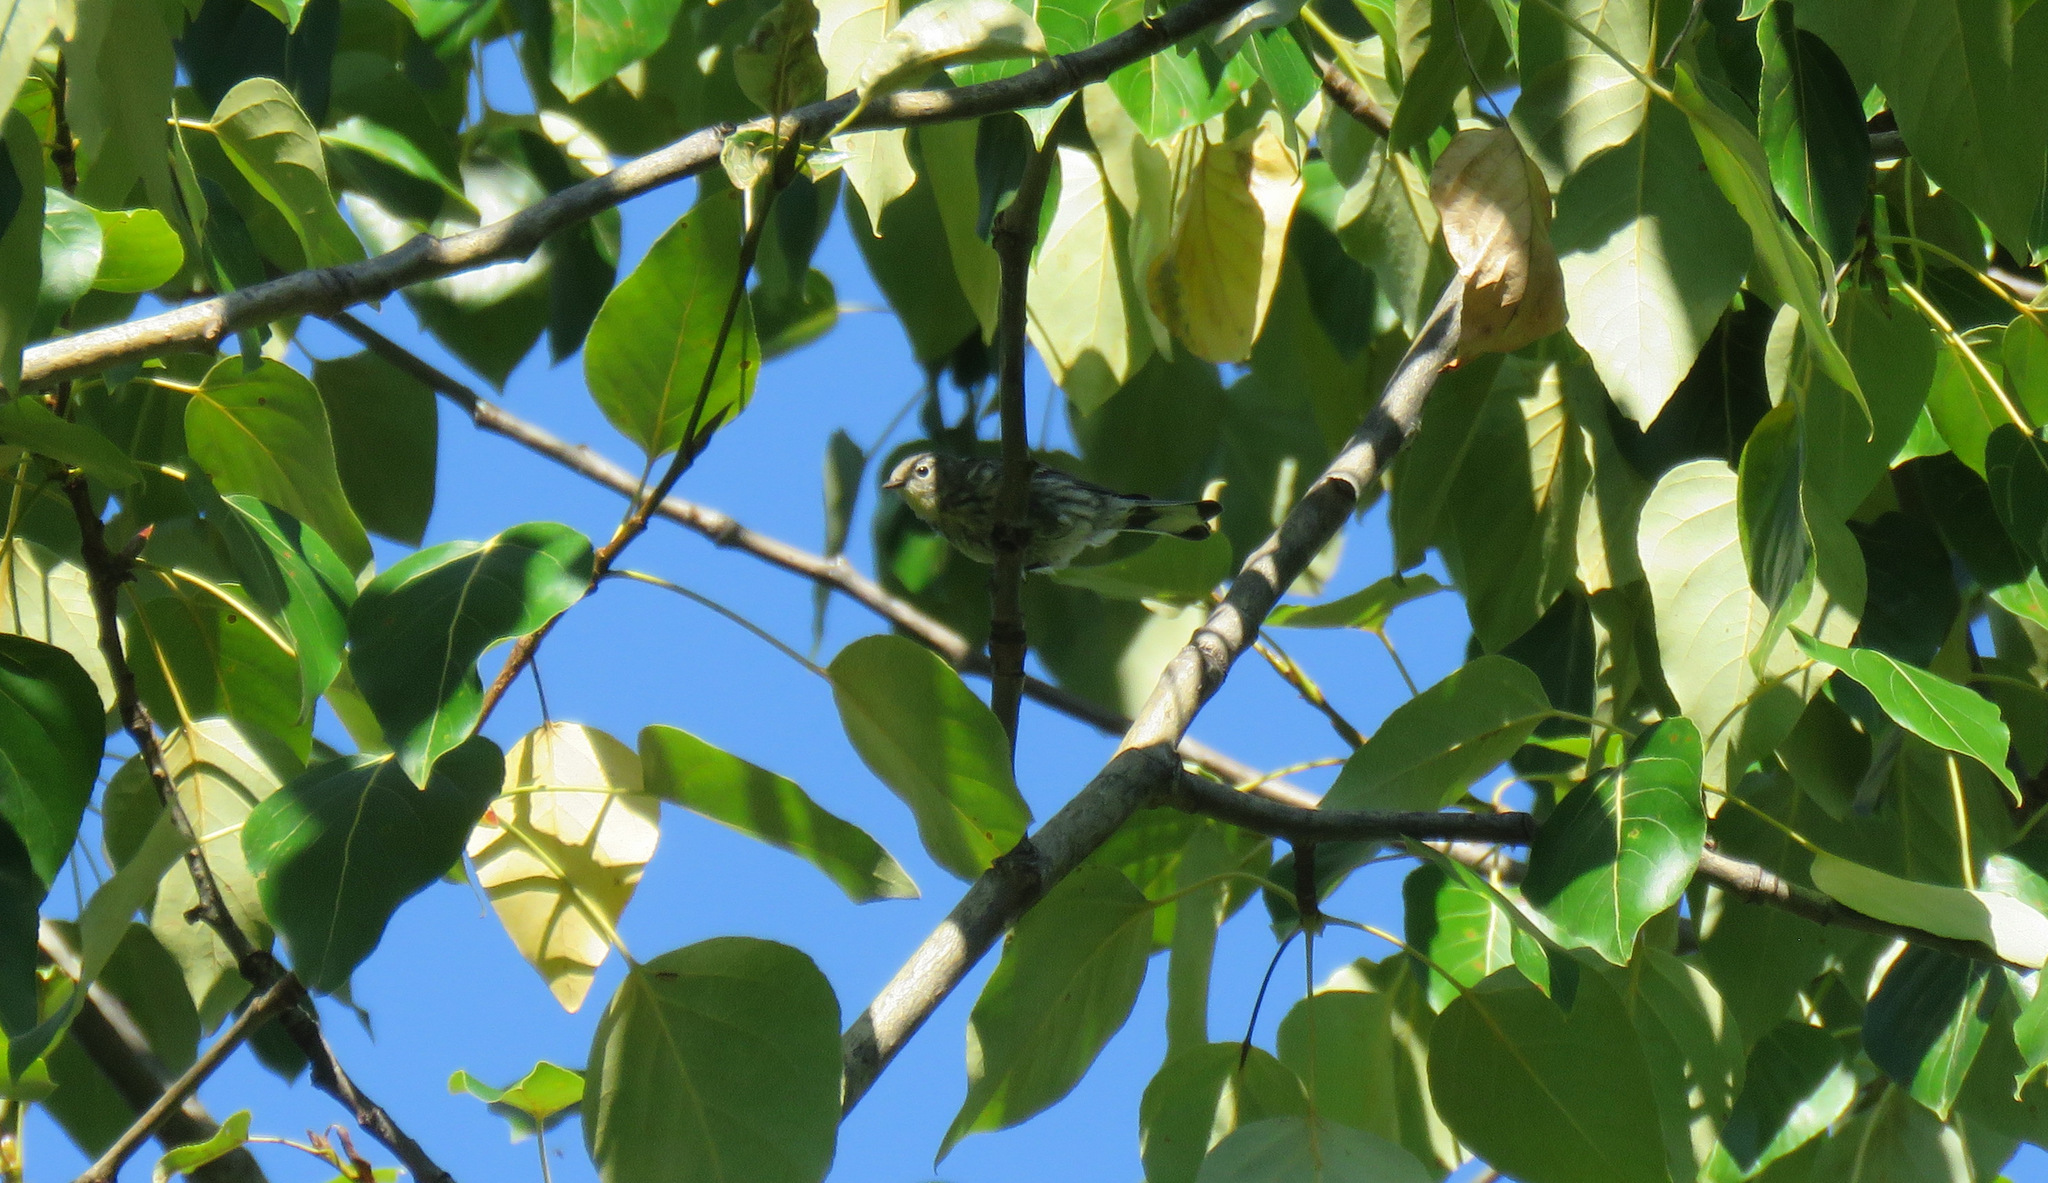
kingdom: Animalia
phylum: Chordata
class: Aves
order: Passeriformes
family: Parulidae
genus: Setophaga
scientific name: Setophaga coronata
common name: Myrtle warbler
